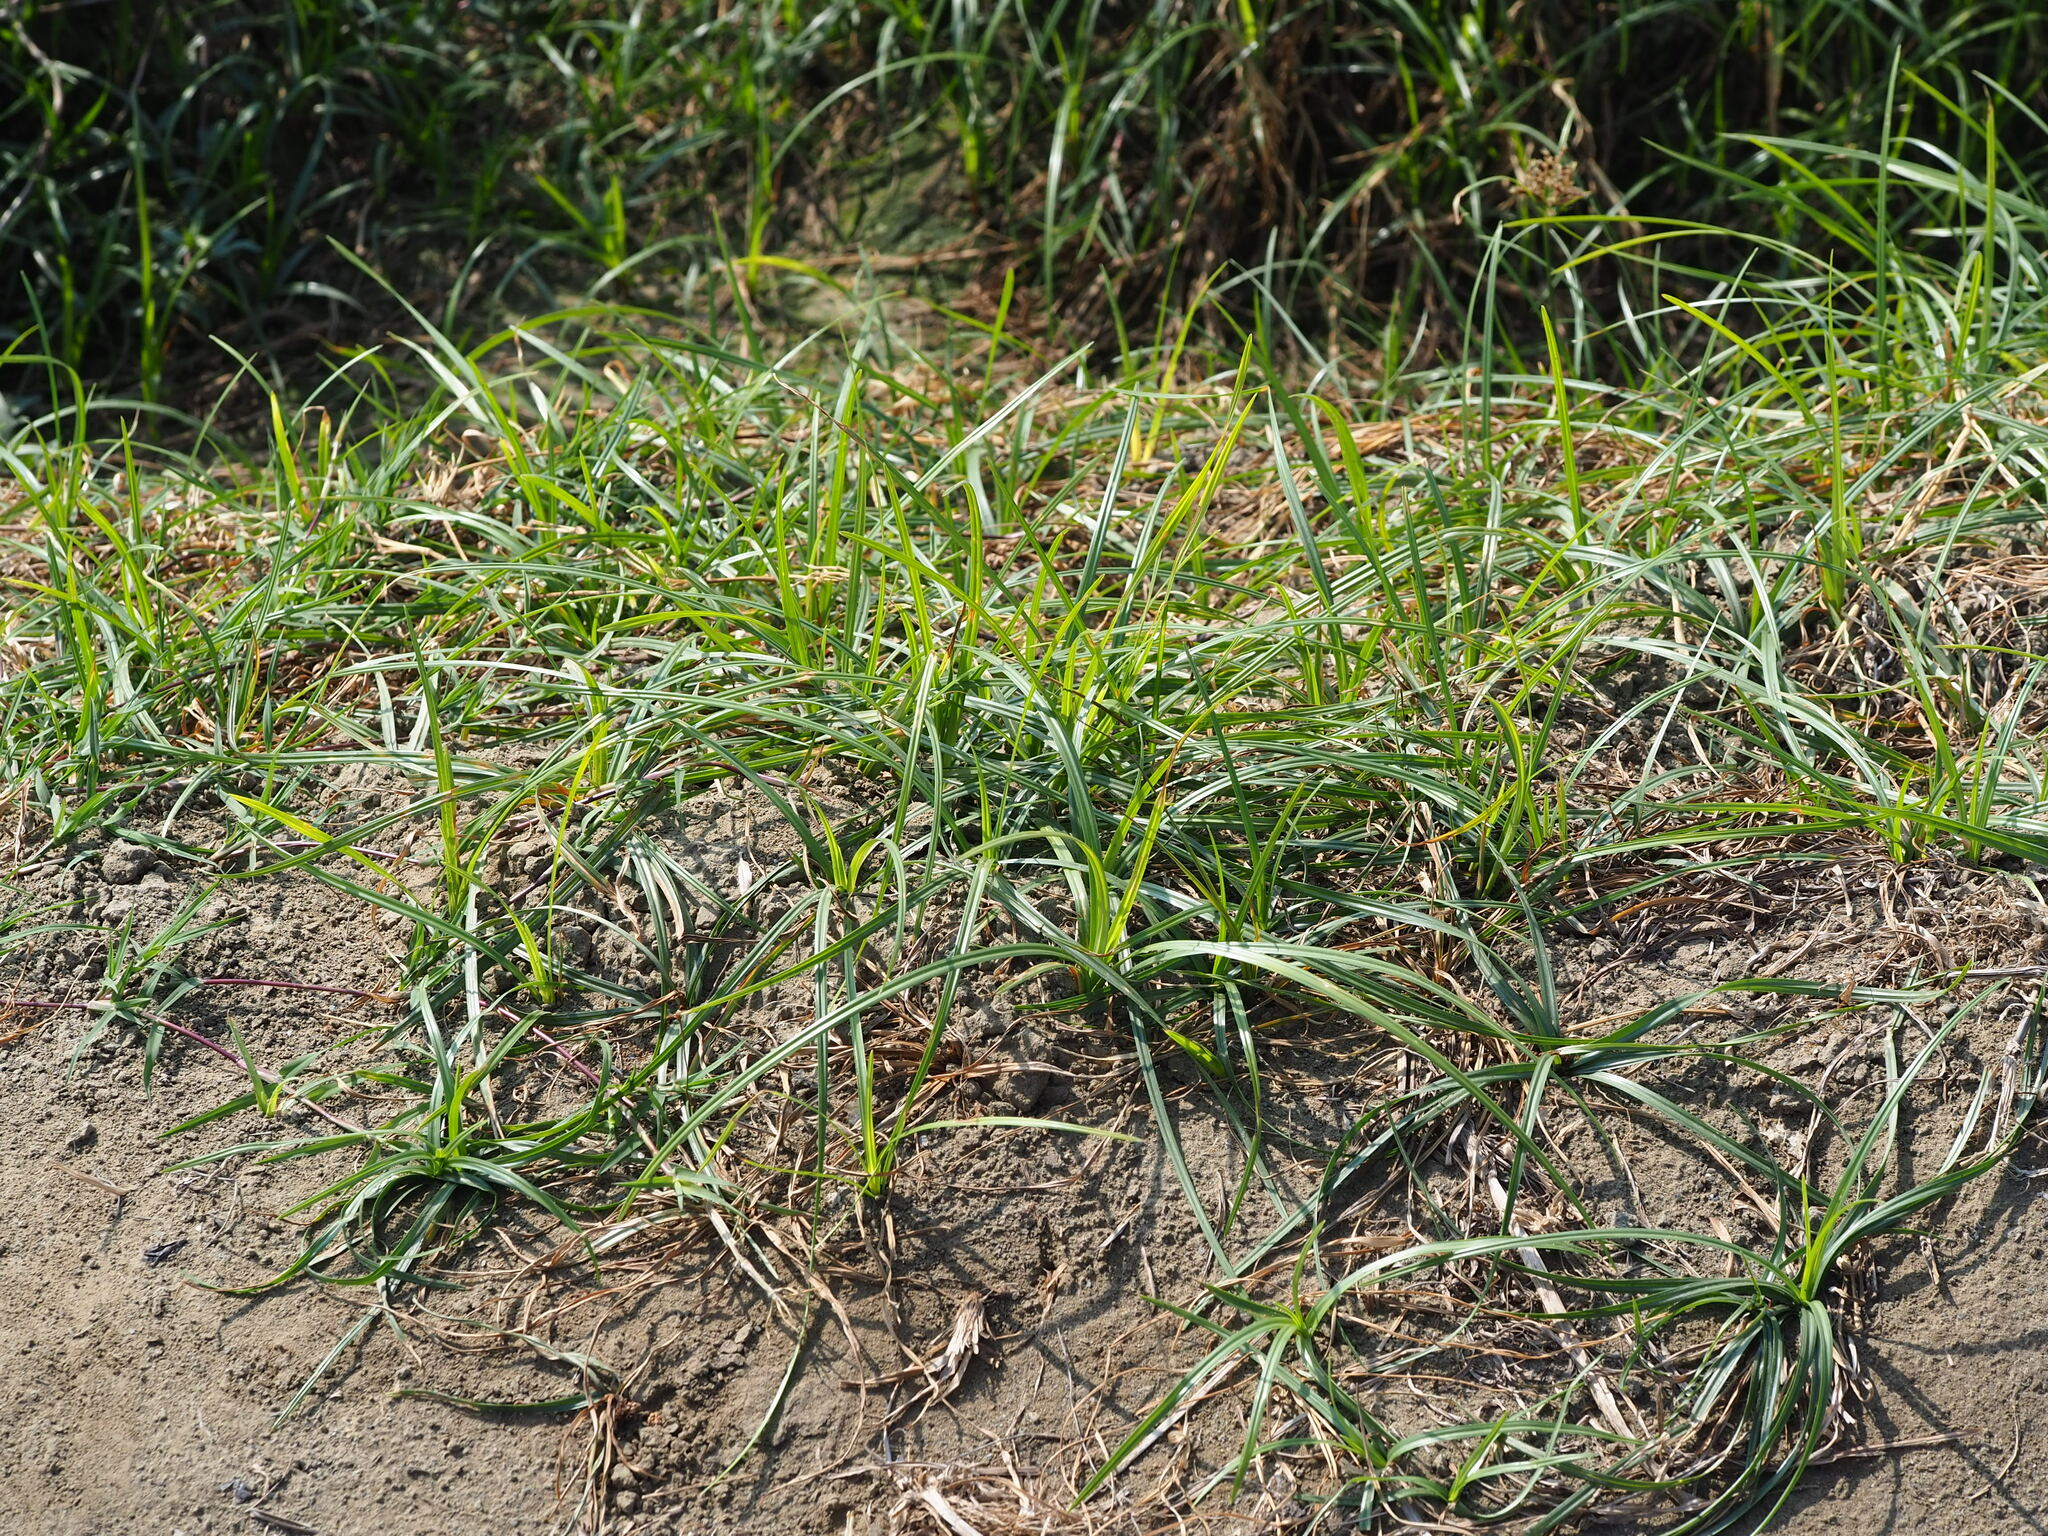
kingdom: Plantae
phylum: Tracheophyta
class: Liliopsida
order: Poales
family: Cyperaceae
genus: Cyperus
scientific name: Cyperus rotundus
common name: Nutgrass
